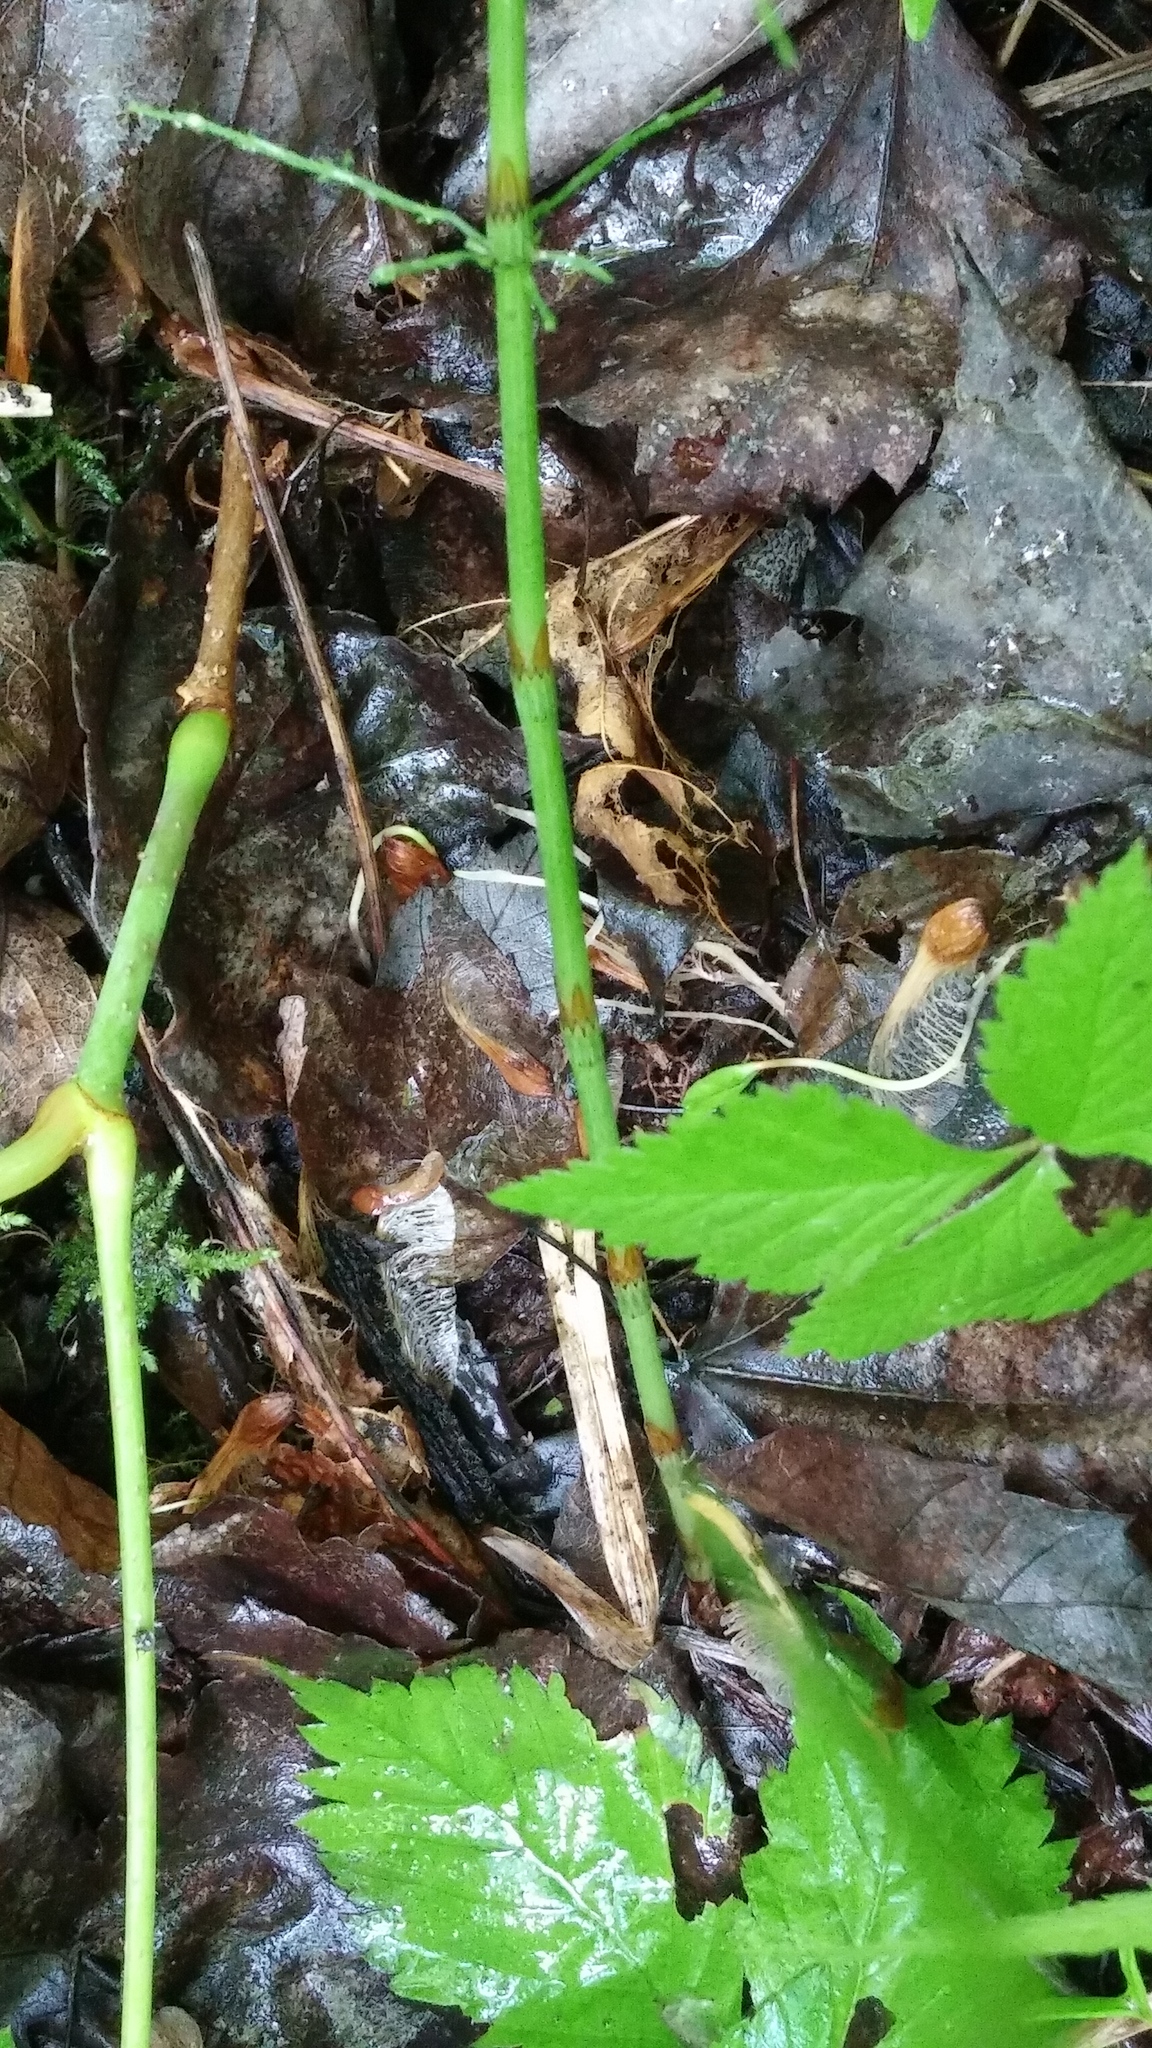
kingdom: Plantae
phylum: Tracheophyta
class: Polypodiopsida
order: Equisetales
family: Equisetaceae
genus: Equisetum
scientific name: Equisetum sylvaticum
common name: Wood horsetail
